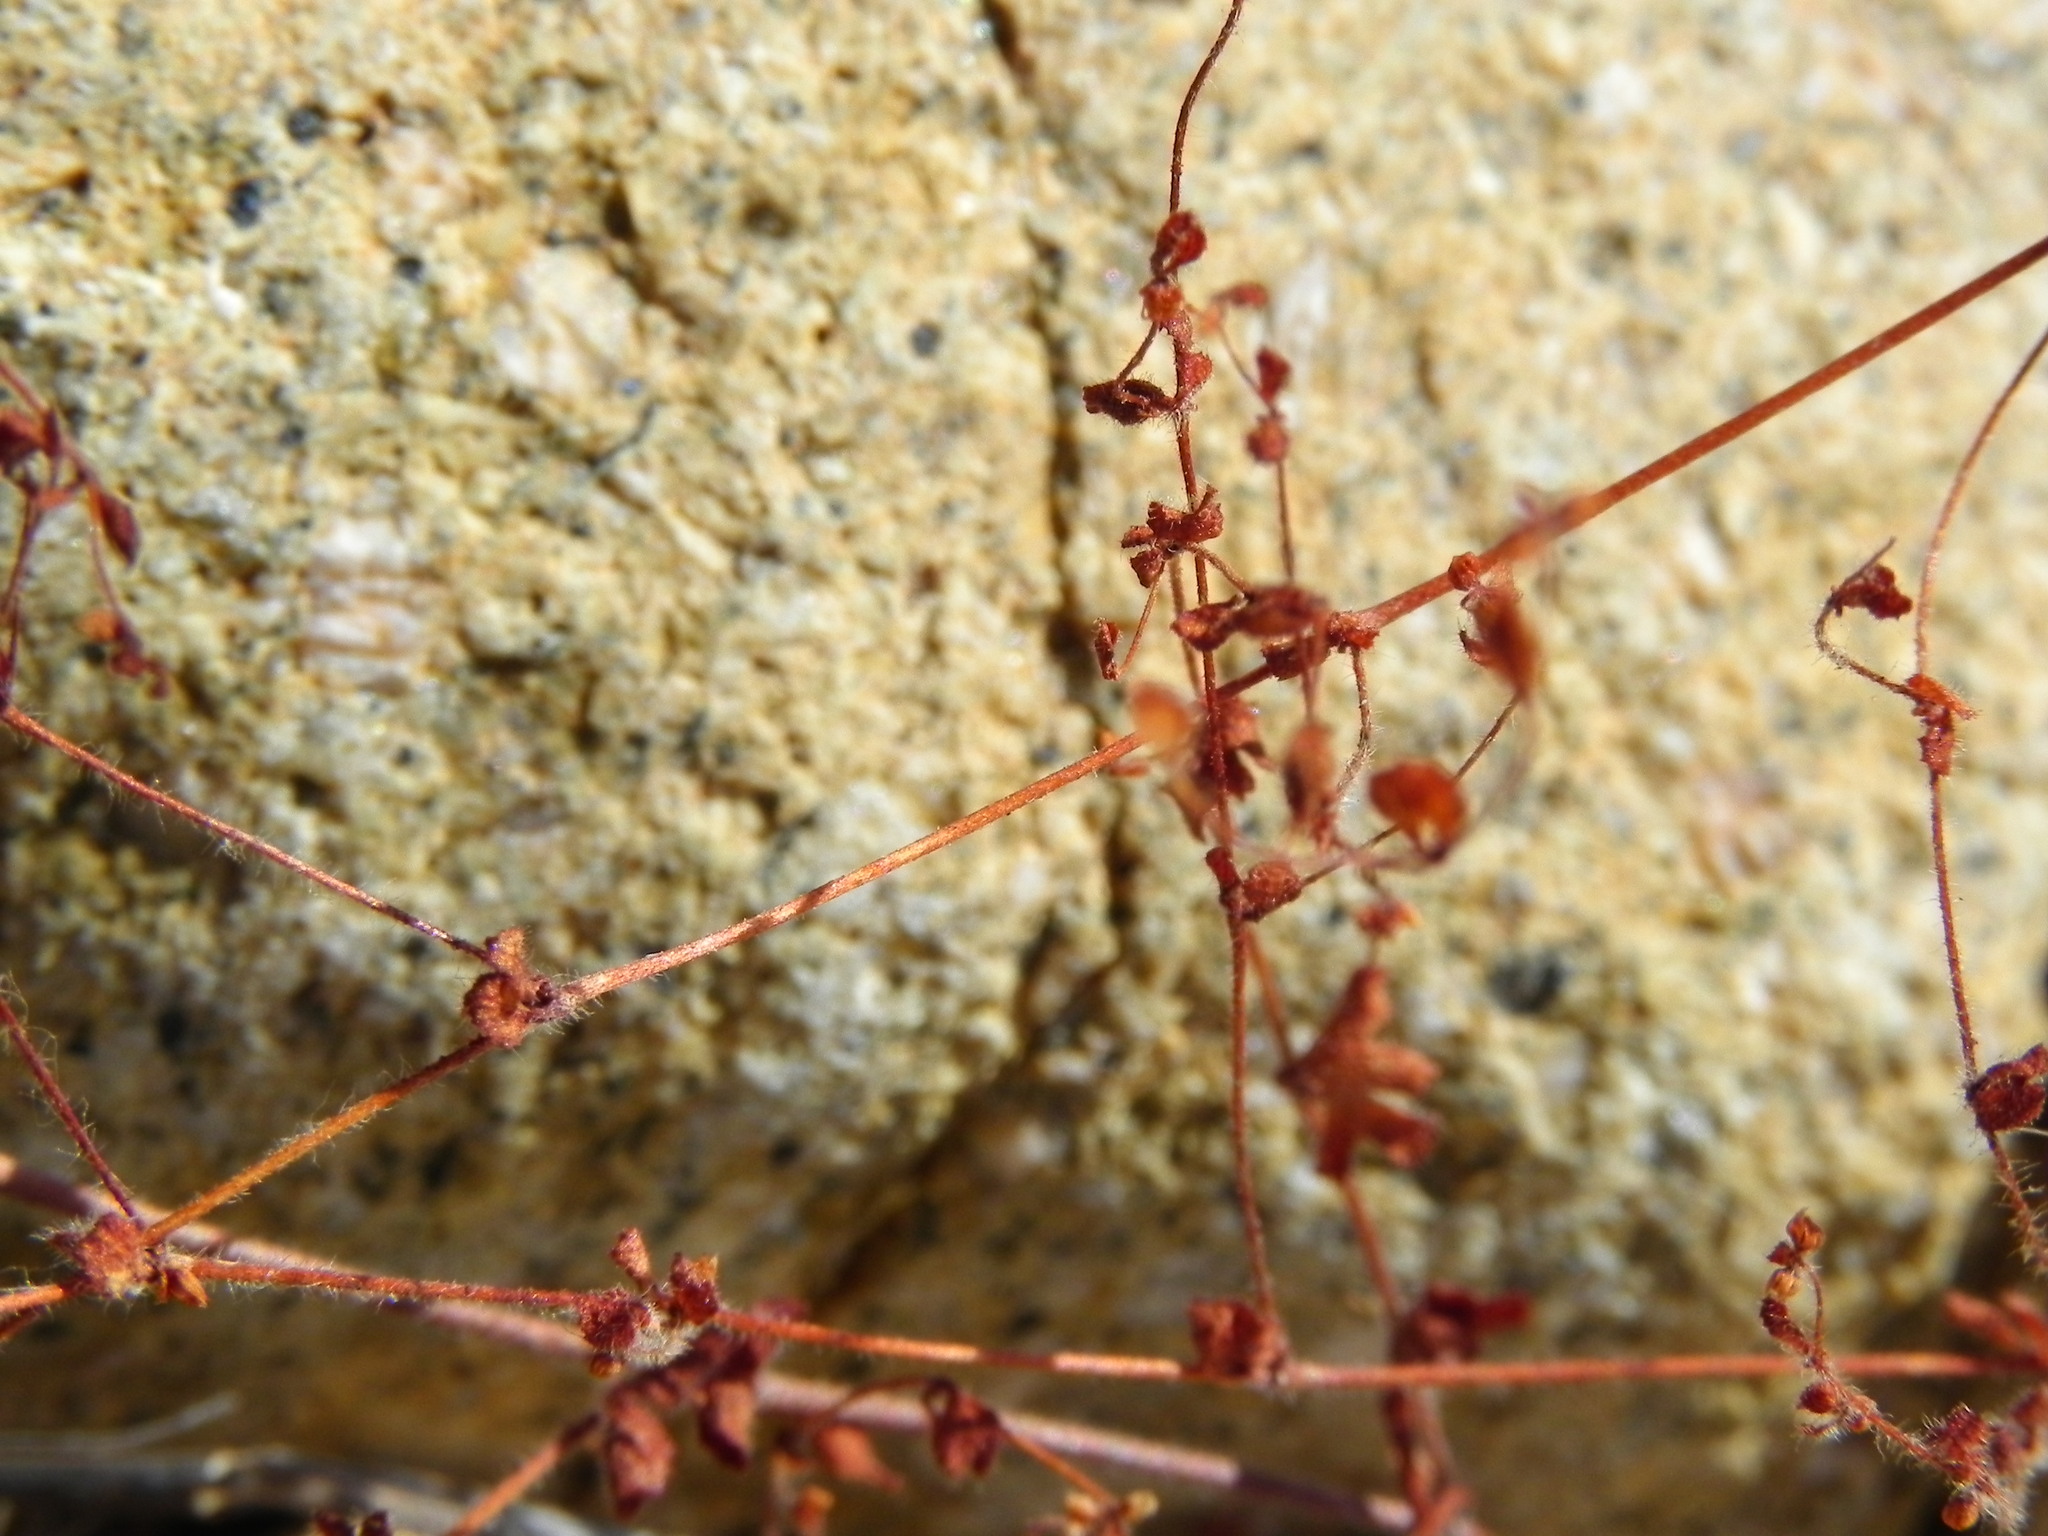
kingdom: Plantae
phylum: Tracheophyta
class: Magnoliopsida
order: Caryophyllales
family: Polygonaceae
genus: Pterostegia
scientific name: Pterostegia drymarioides
